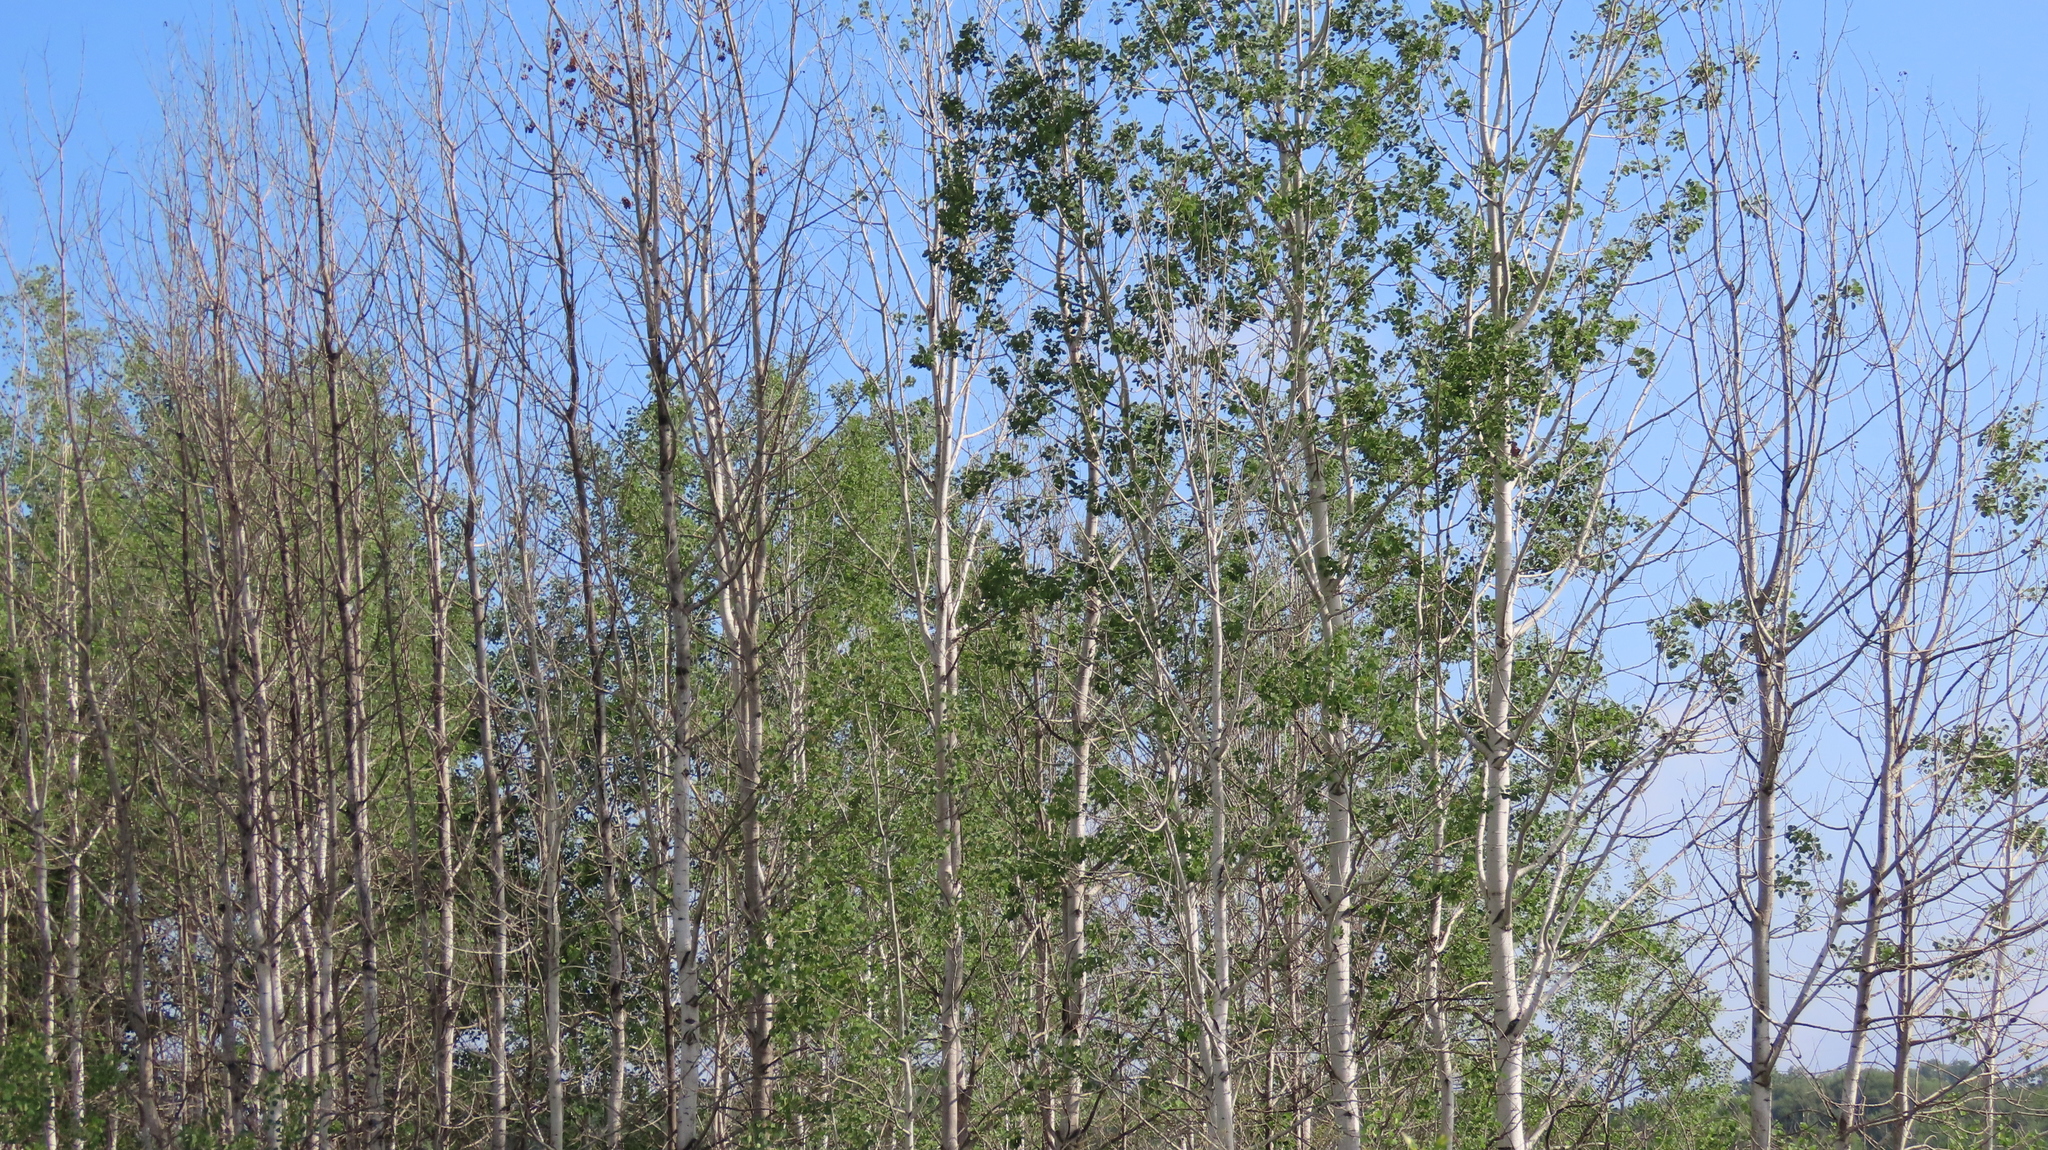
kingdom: Plantae
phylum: Tracheophyta
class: Magnoliopsida
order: Malpighiales
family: Salicaceae
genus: Populus
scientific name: Populus tremuloides
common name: Quaking aspen
